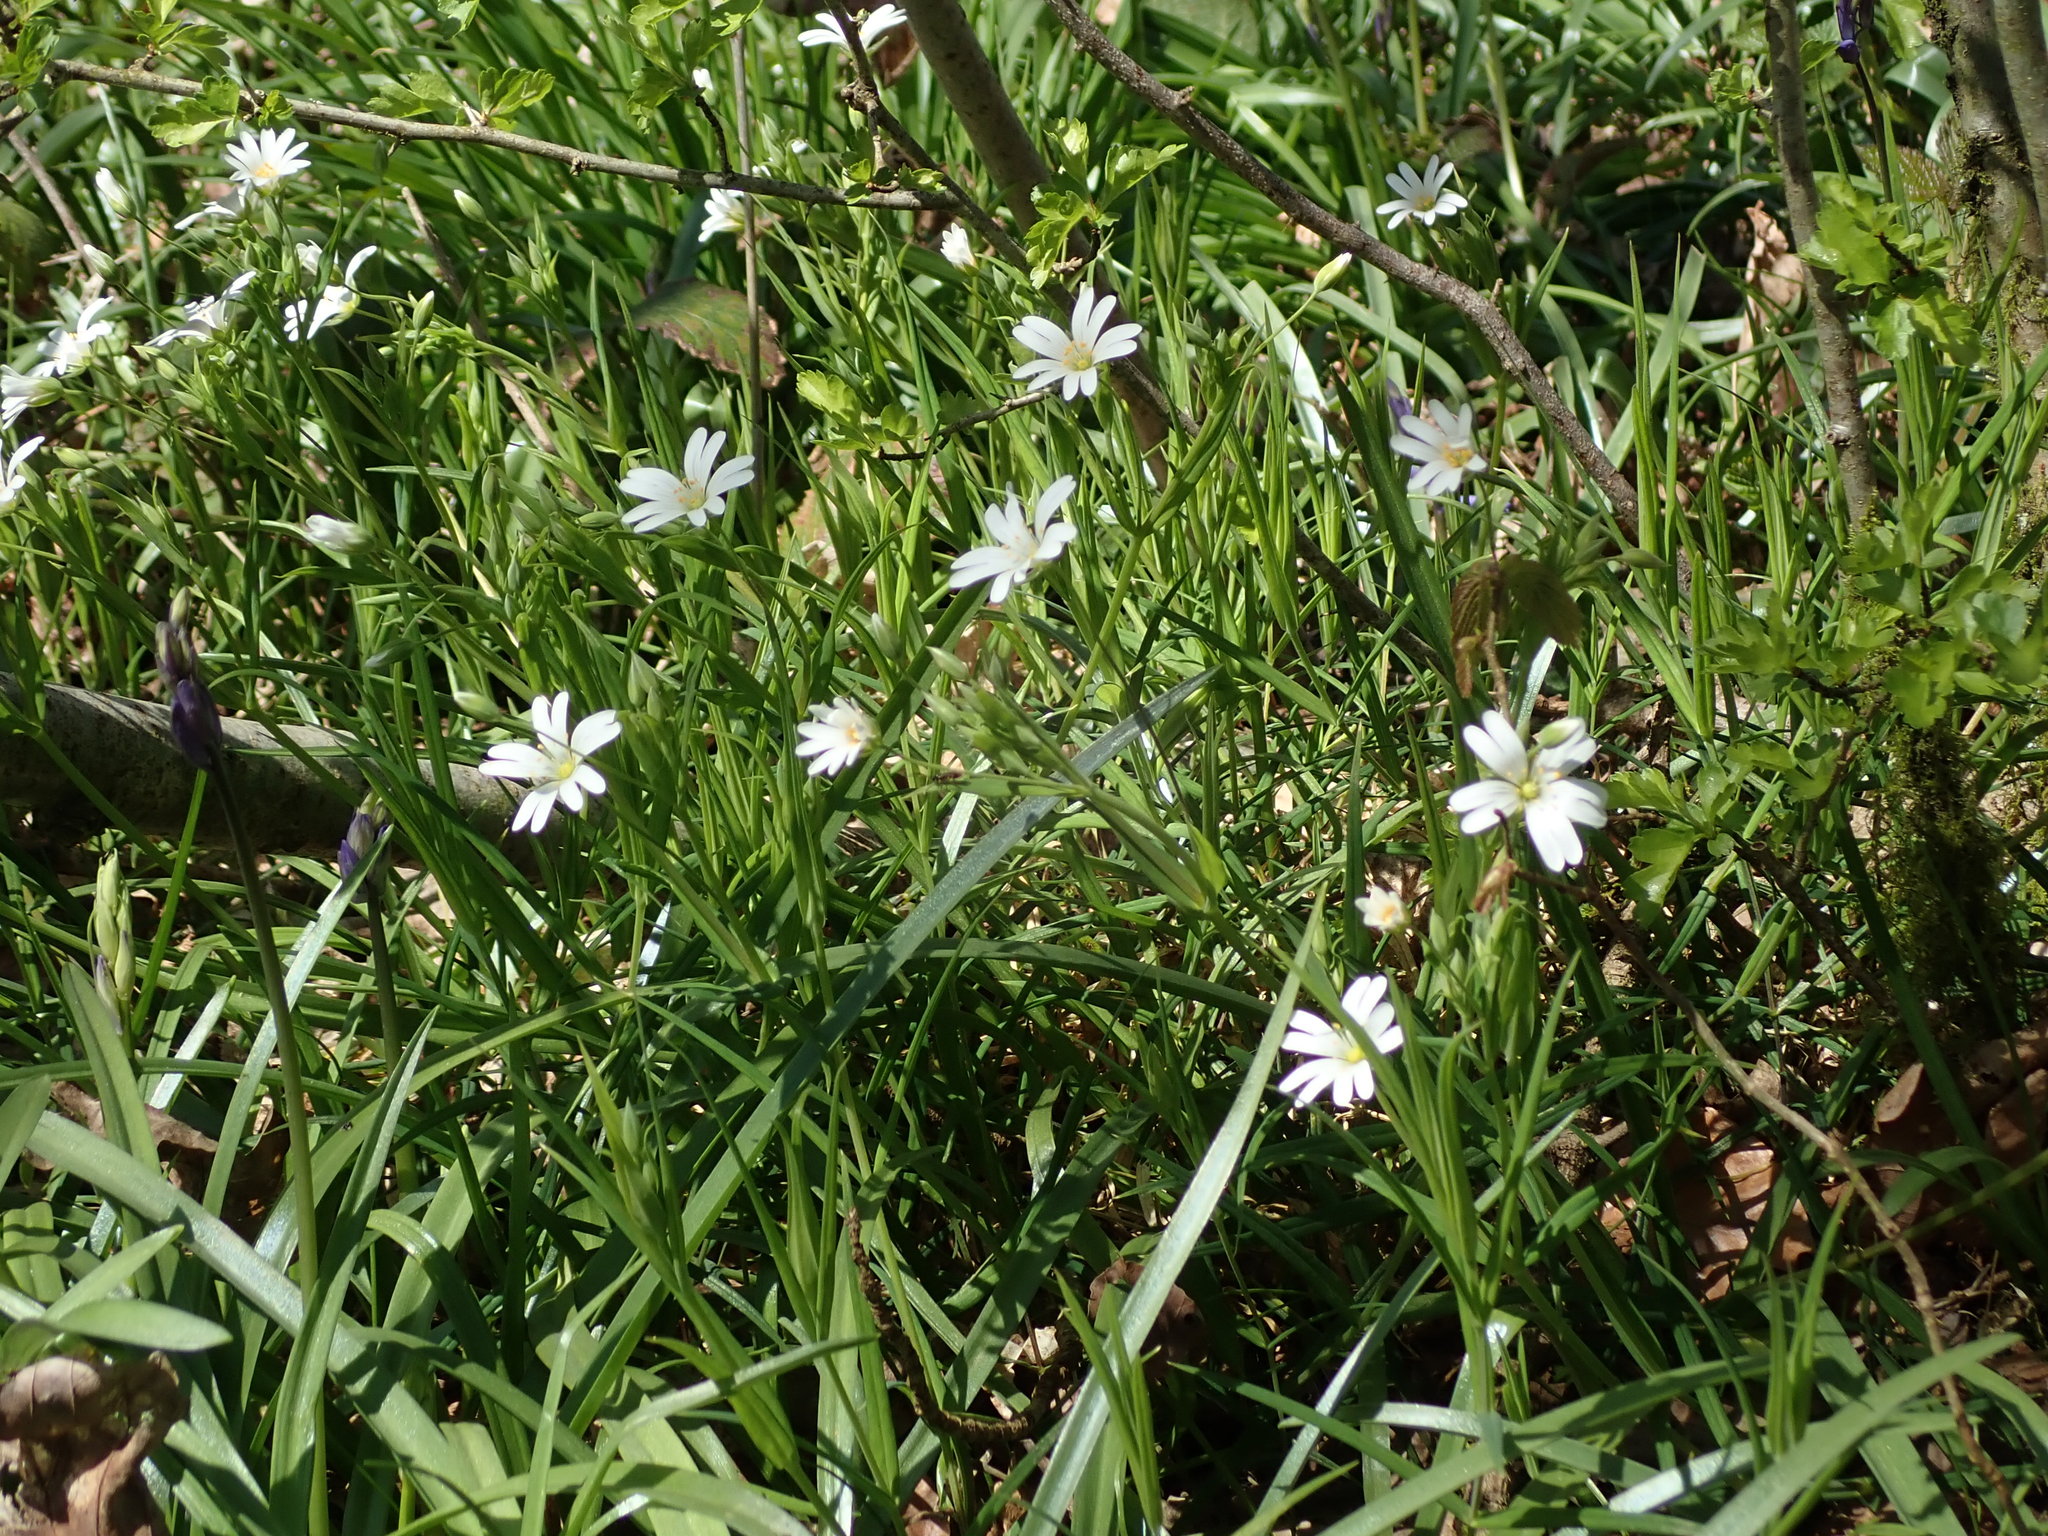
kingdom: Plantae
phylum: Tracheophyta
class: Magnoliopsida
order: Caryophyllales
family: Caryophyllaceae
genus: Rabelera
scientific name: Rabelera holostea
